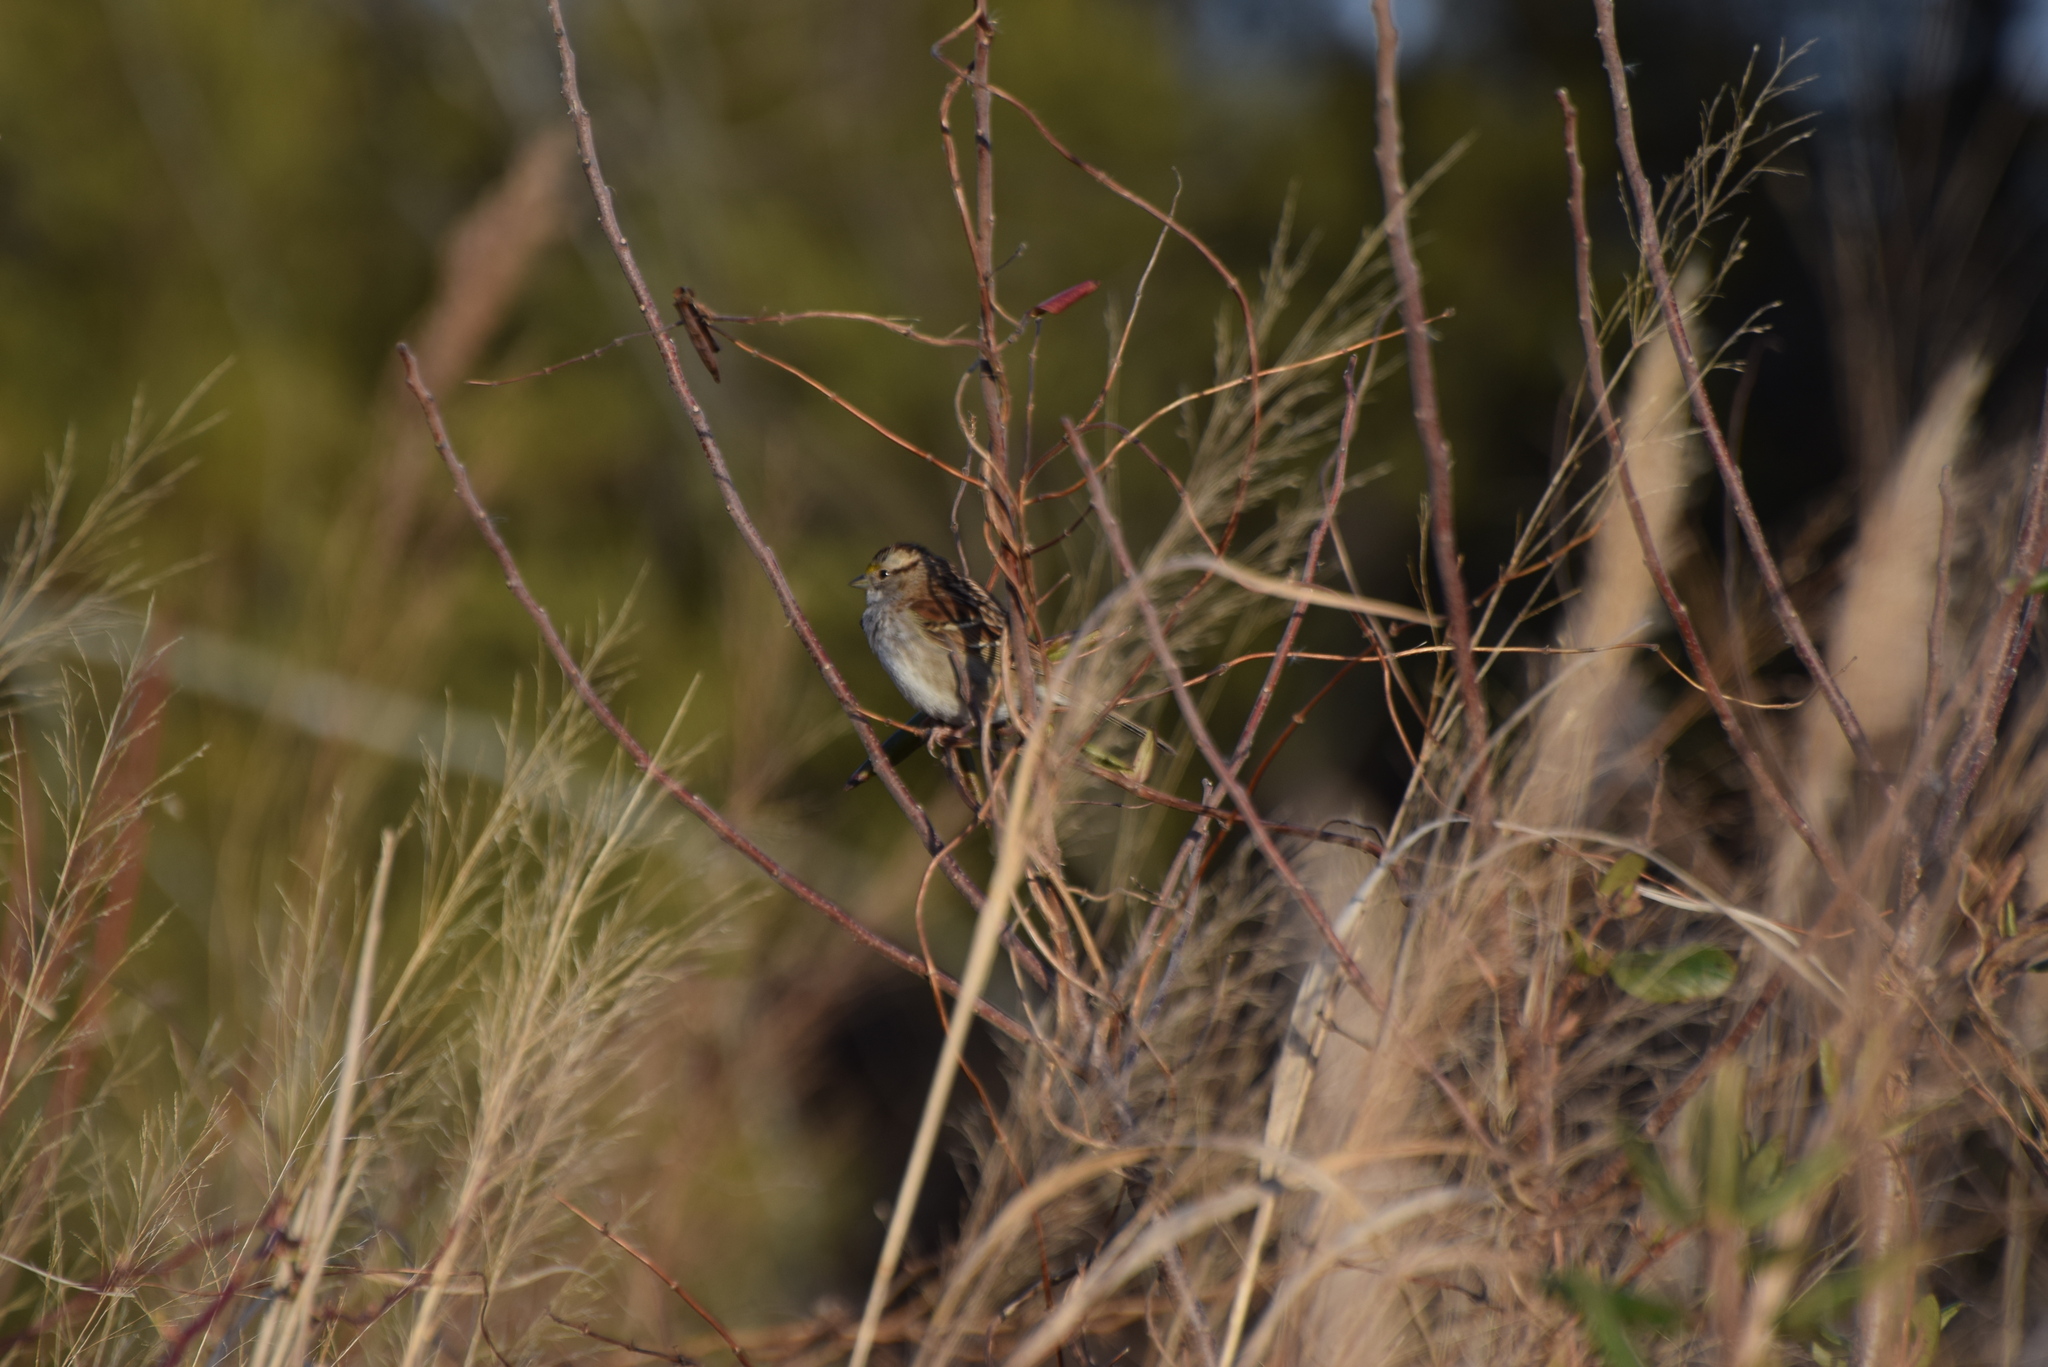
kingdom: Animalia
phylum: Chordata
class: Aves
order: Passeriformes
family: Passerellidae
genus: Zonotrichia
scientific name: Zonotrichia albicollis
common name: White-throated sparrow
